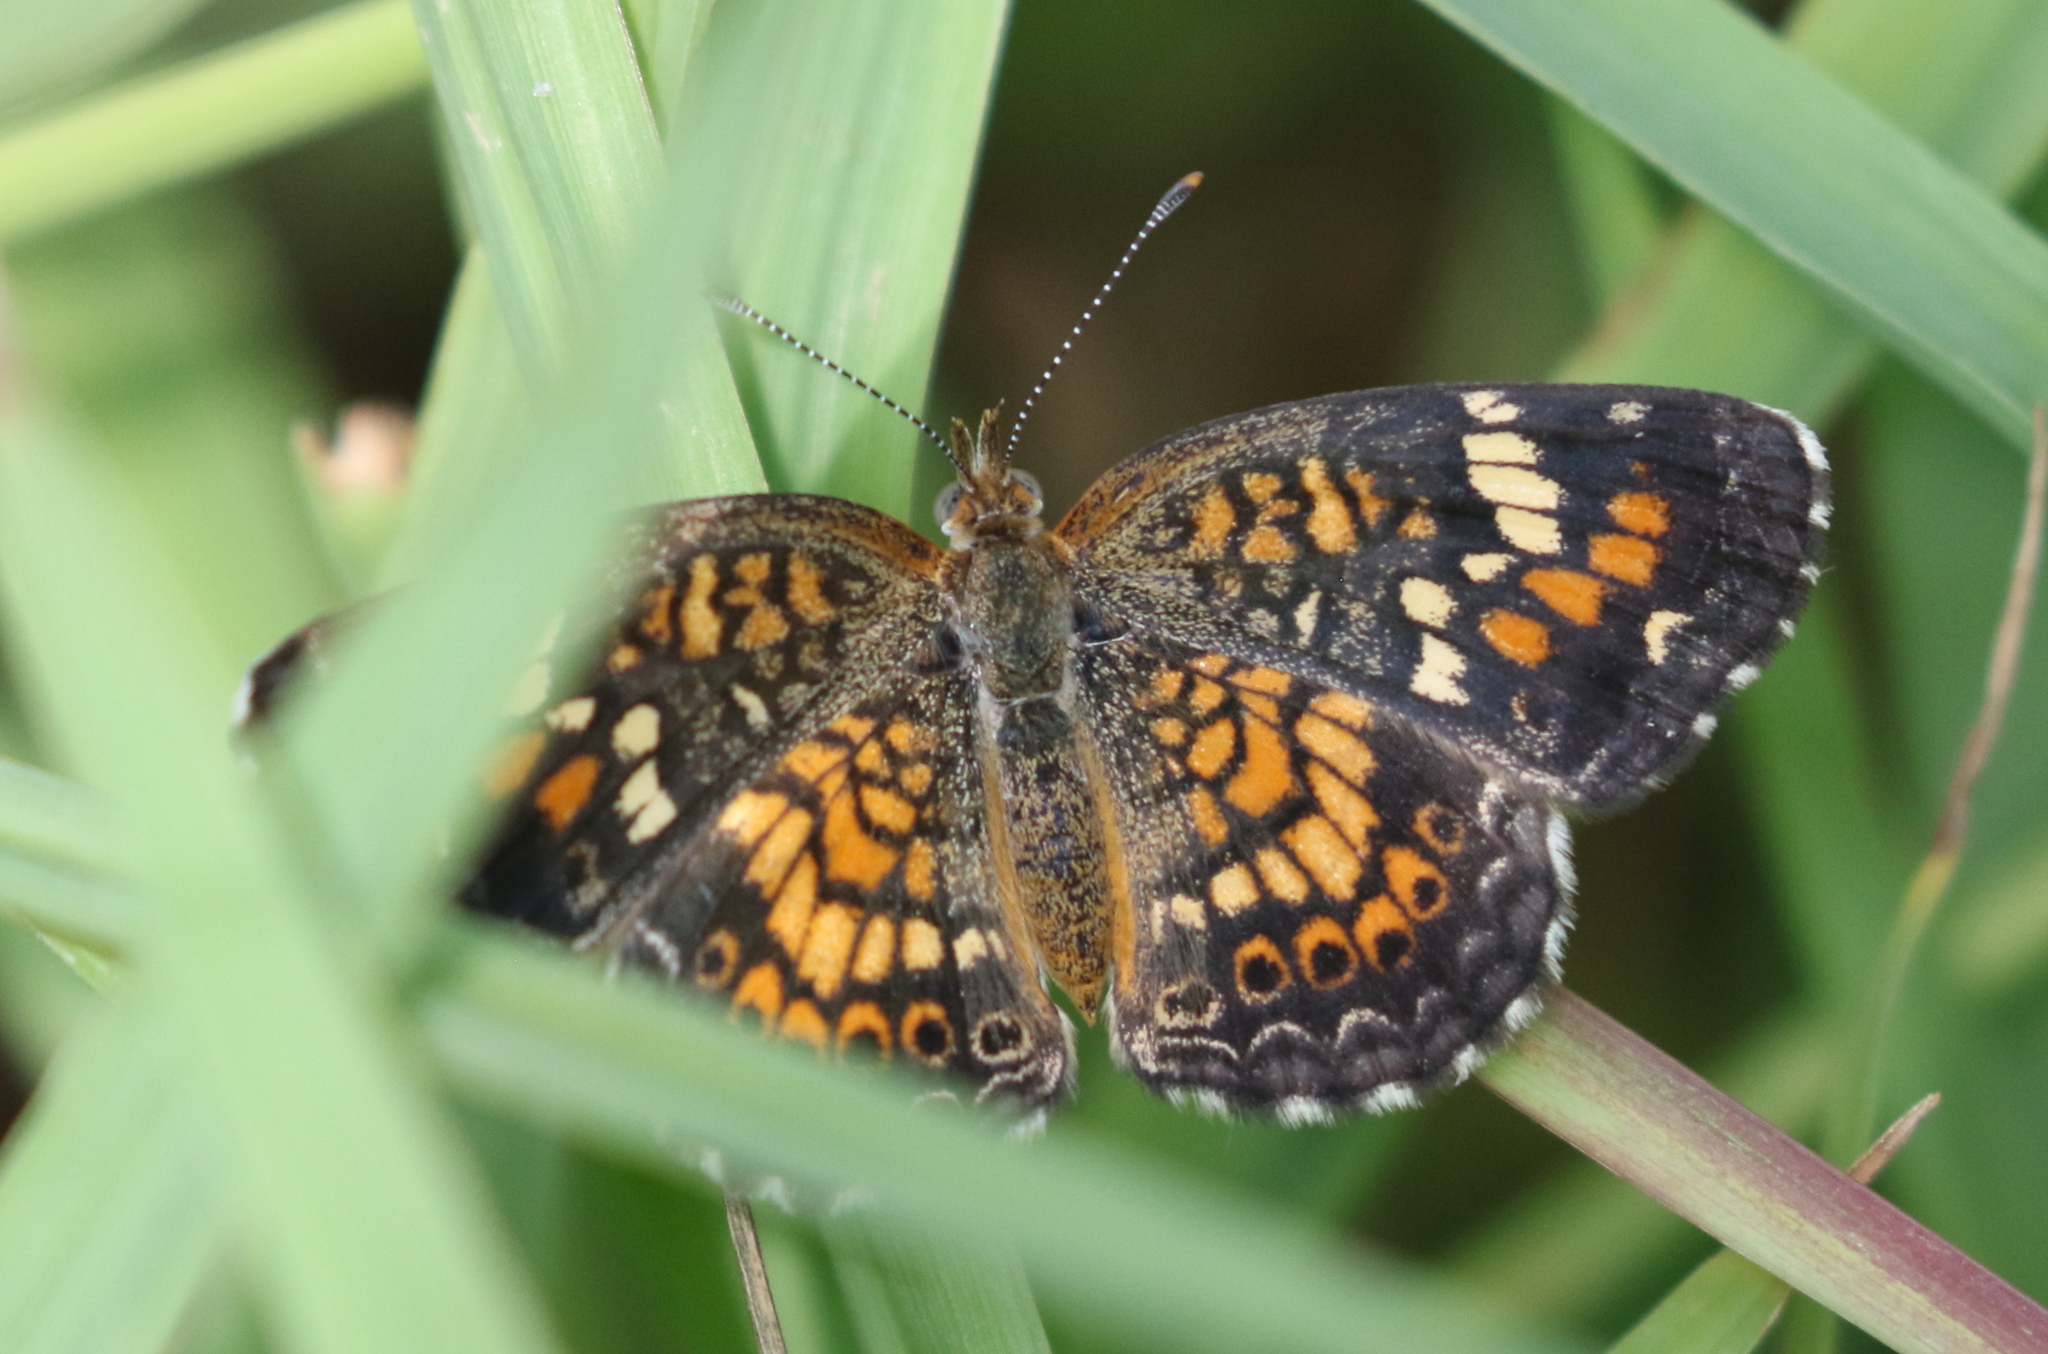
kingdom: Animalia
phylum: Arthropoda
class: Insecta
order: Lepidoptera
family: Nymphalidae
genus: Phyciodes
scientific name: Phyciodes phaon
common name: Phaon crescent
